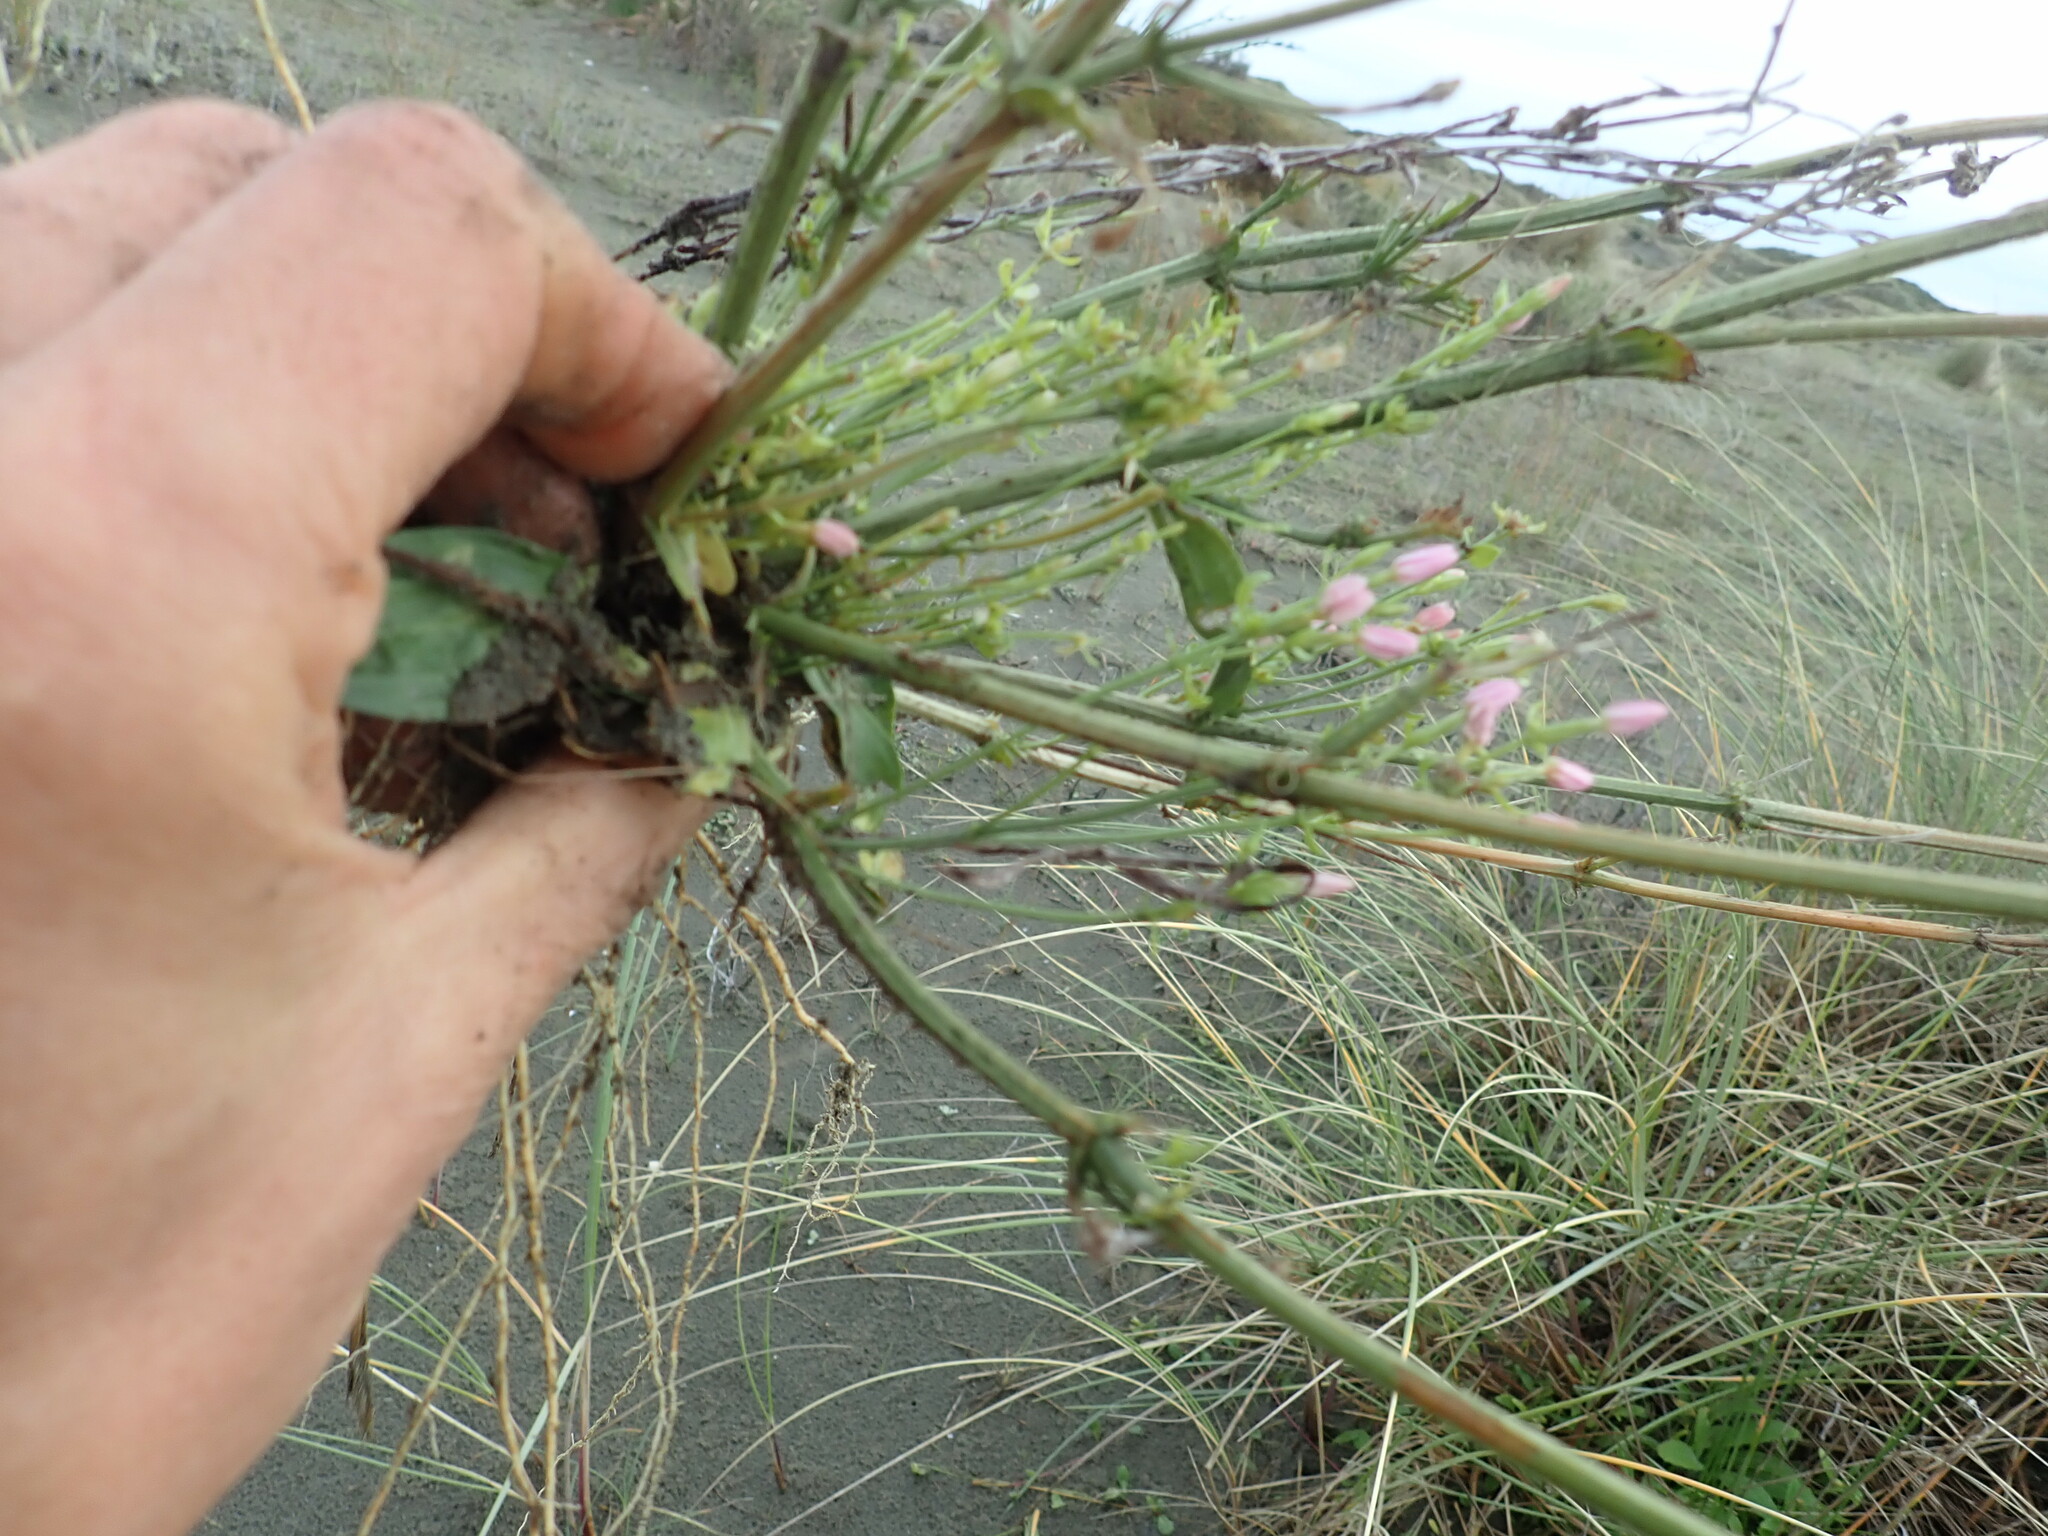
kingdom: Plantae
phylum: Tracheophyta
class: Magnoliopsida
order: Gentianales
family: Gentianaceae
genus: Centaurium
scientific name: Centaurium erythraea
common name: Common centaury
